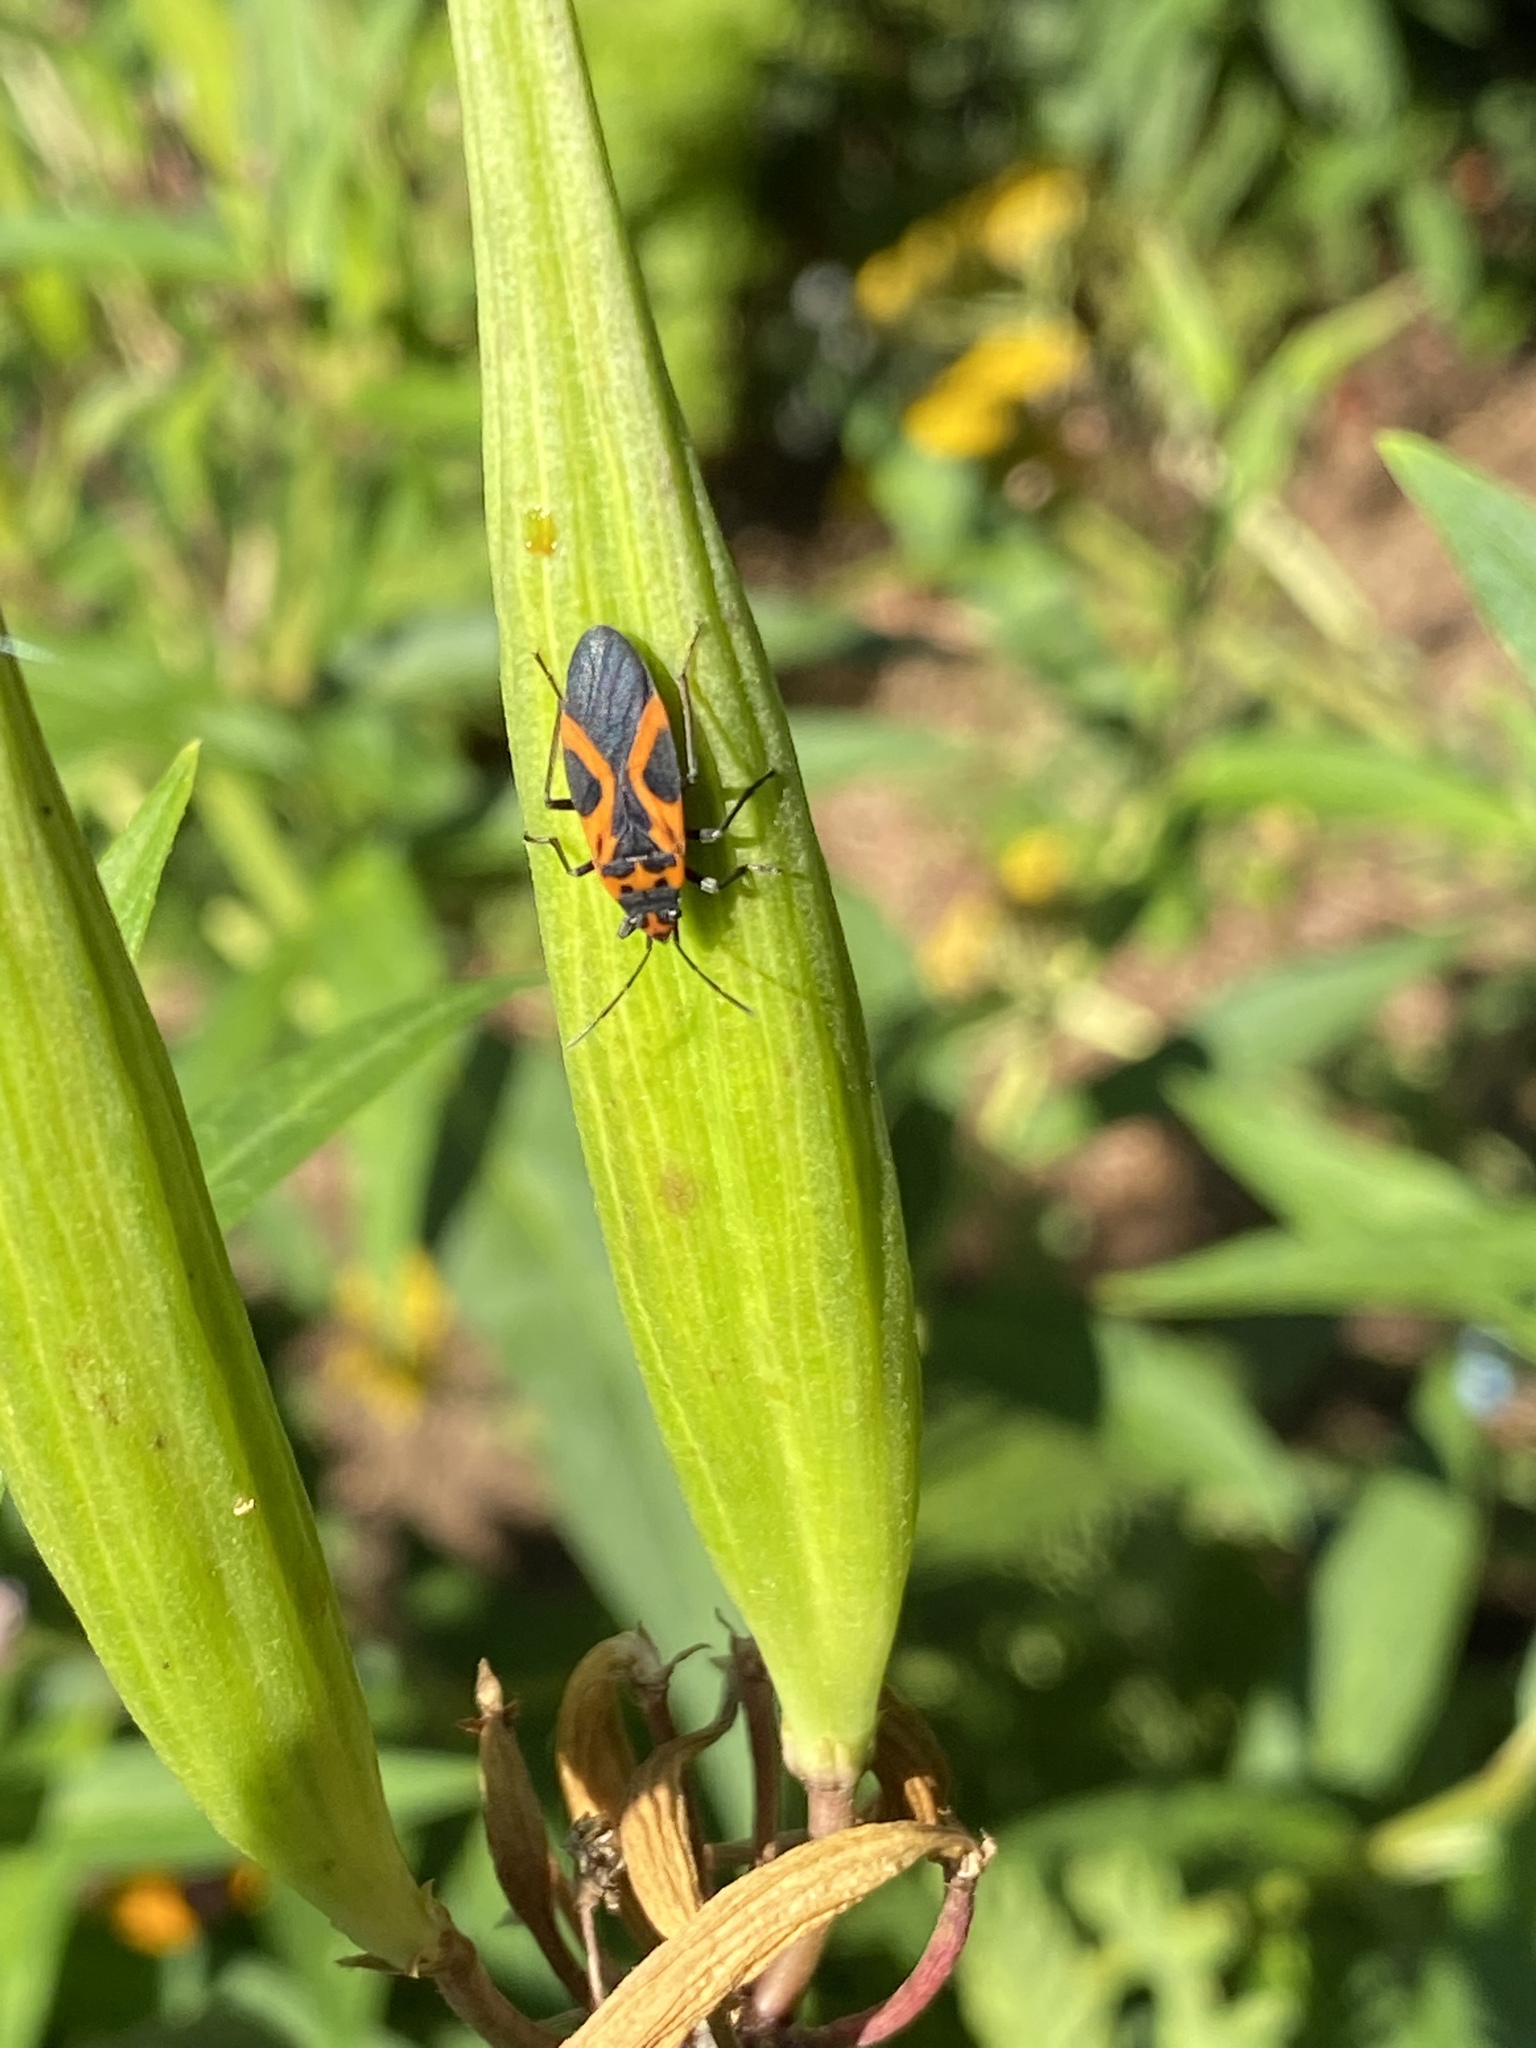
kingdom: Animalia
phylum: Arthropoda
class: Insecta
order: Hemiptera
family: Lygaeidae
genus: Lygaeus
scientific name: Lygaeus turcicus
